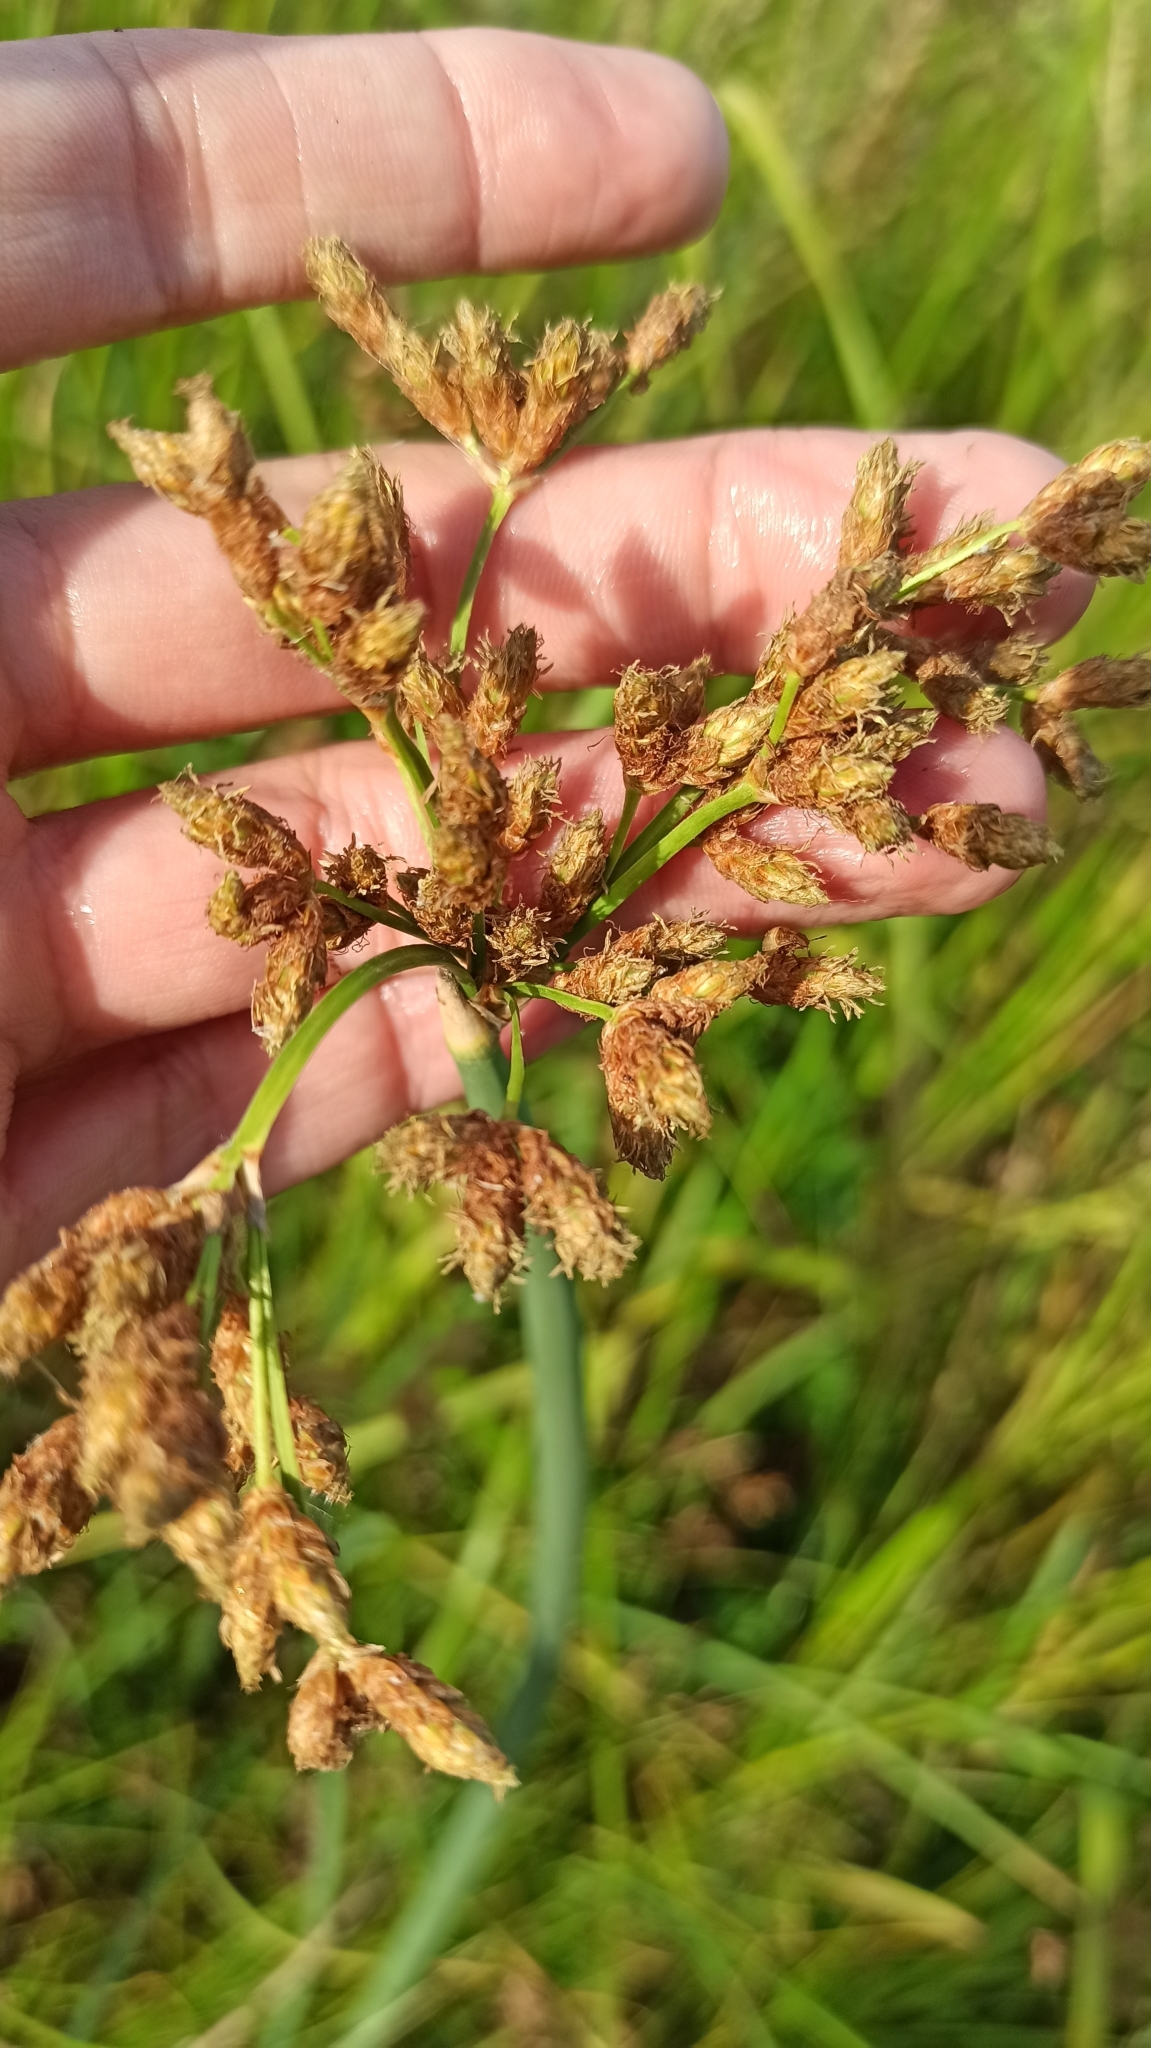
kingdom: Plantae
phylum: Tracheophyta
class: Liliopsida
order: Poales
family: Cyperaceae
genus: Schoenoplectus
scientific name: Schoenoplectus lacustris
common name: Common club-rush
